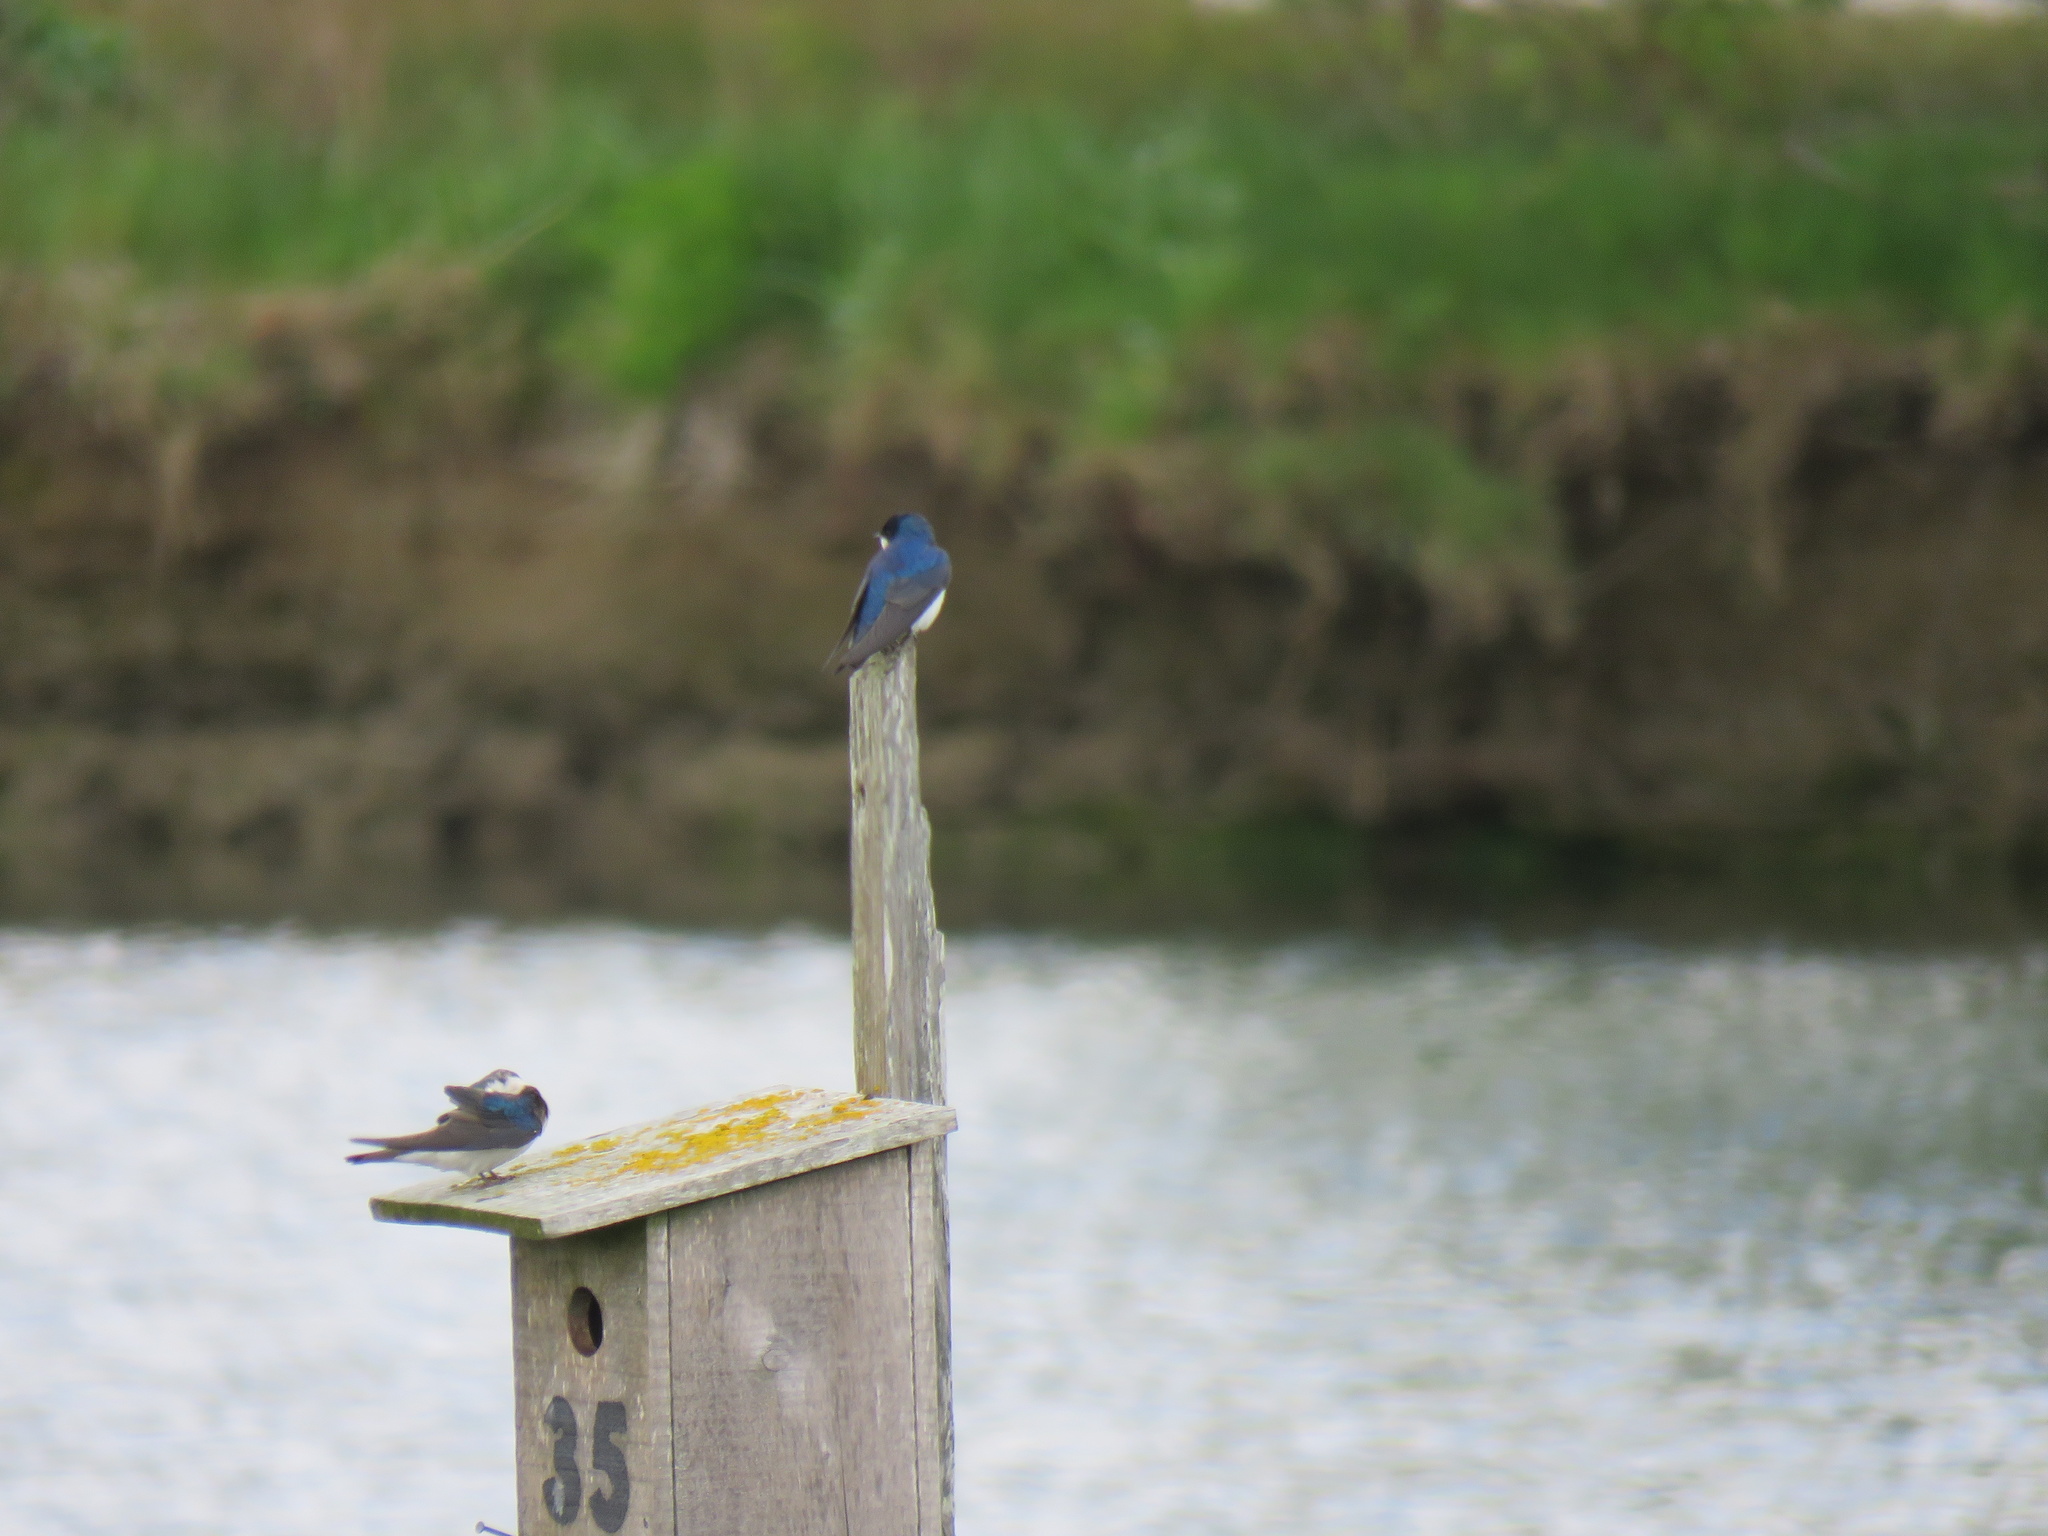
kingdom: Animalia
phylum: Chordata
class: Aves
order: Passeriformes
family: Hirundinidae
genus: Tachycineta
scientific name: Tachycineta bicolor
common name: Tree swallow
